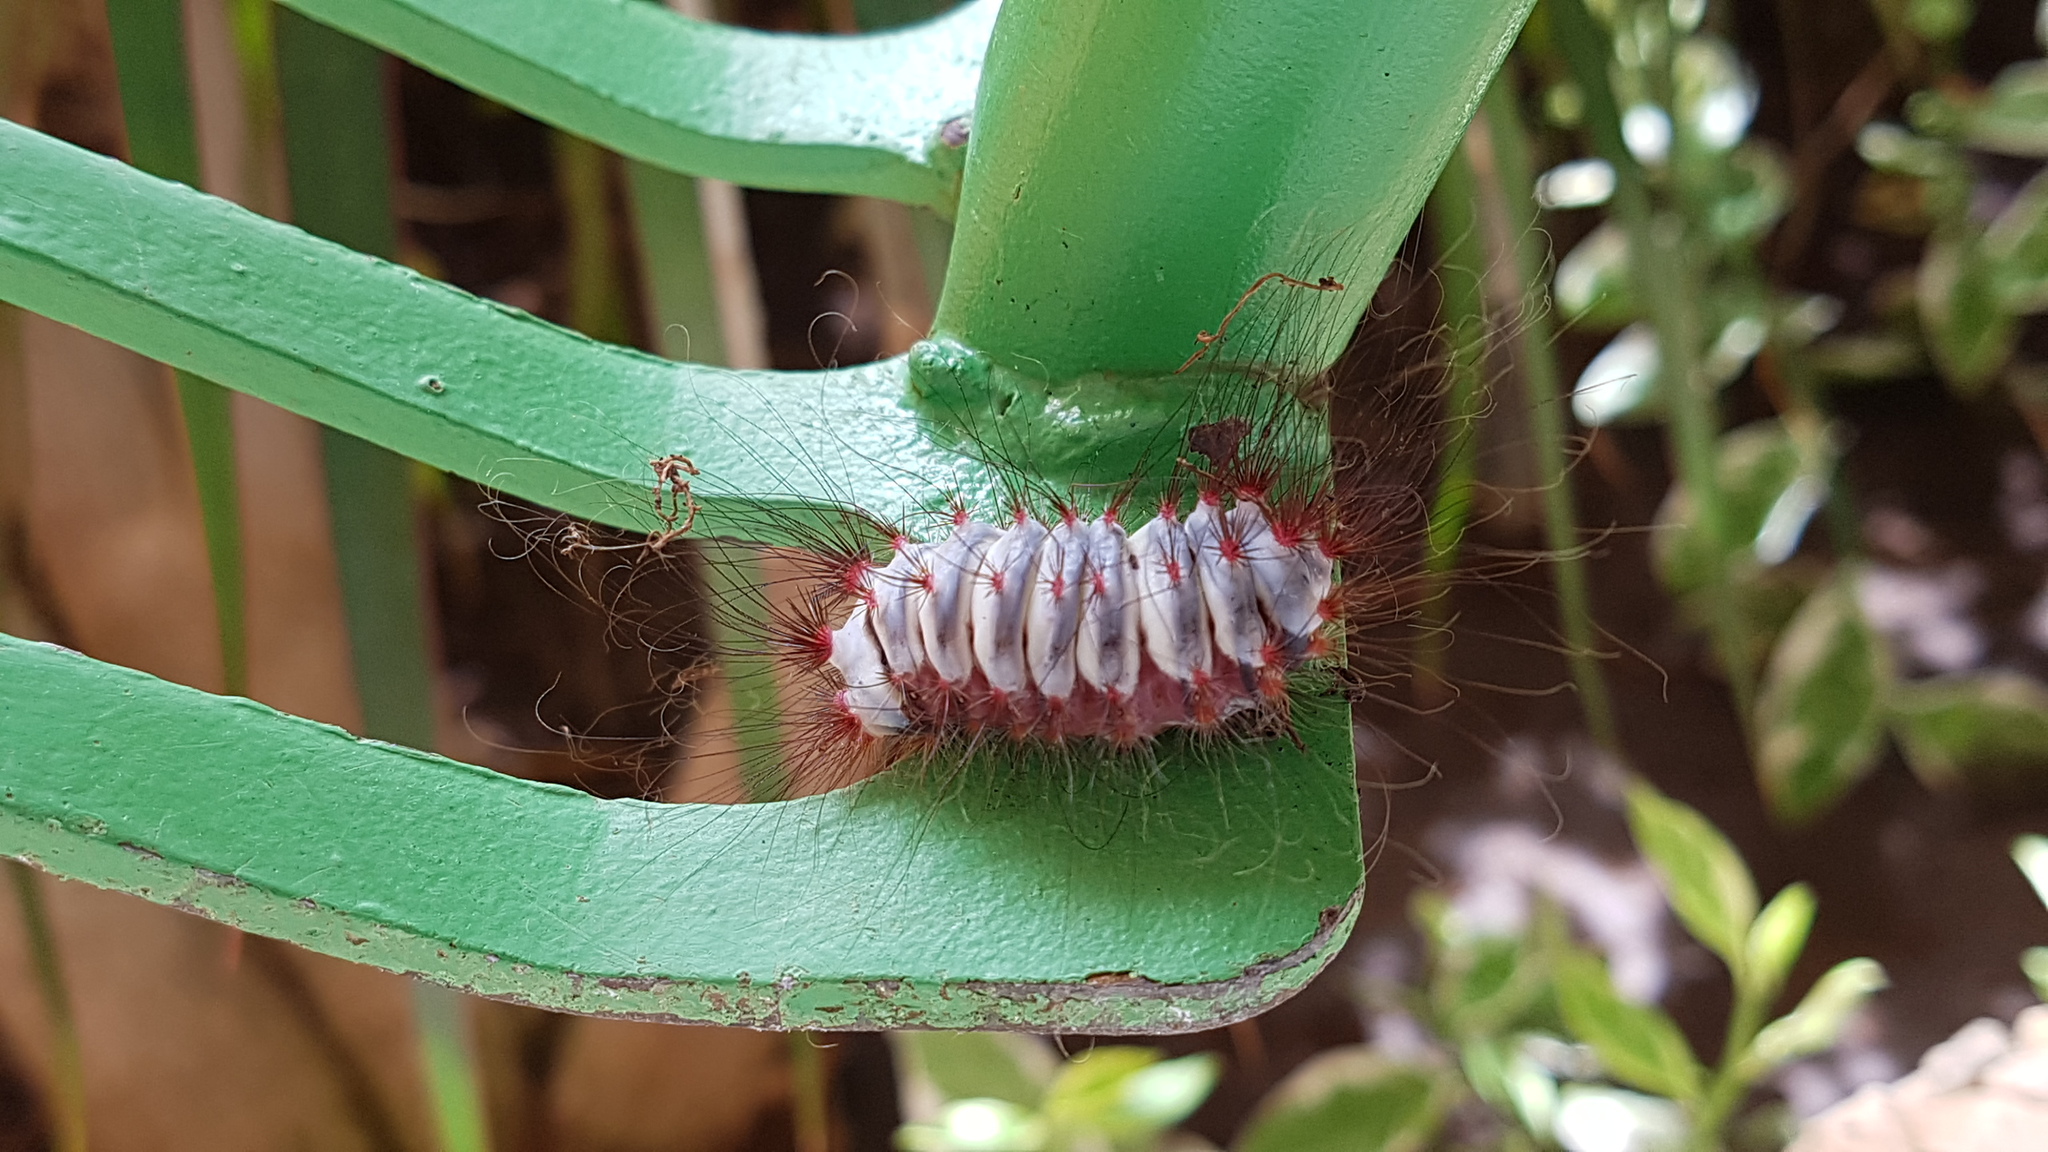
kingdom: Animalia
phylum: Arthropoda
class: Insecta
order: Lepidoptera
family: Megalopygidae
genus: Megalopyge
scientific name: Megalopyge lanata
